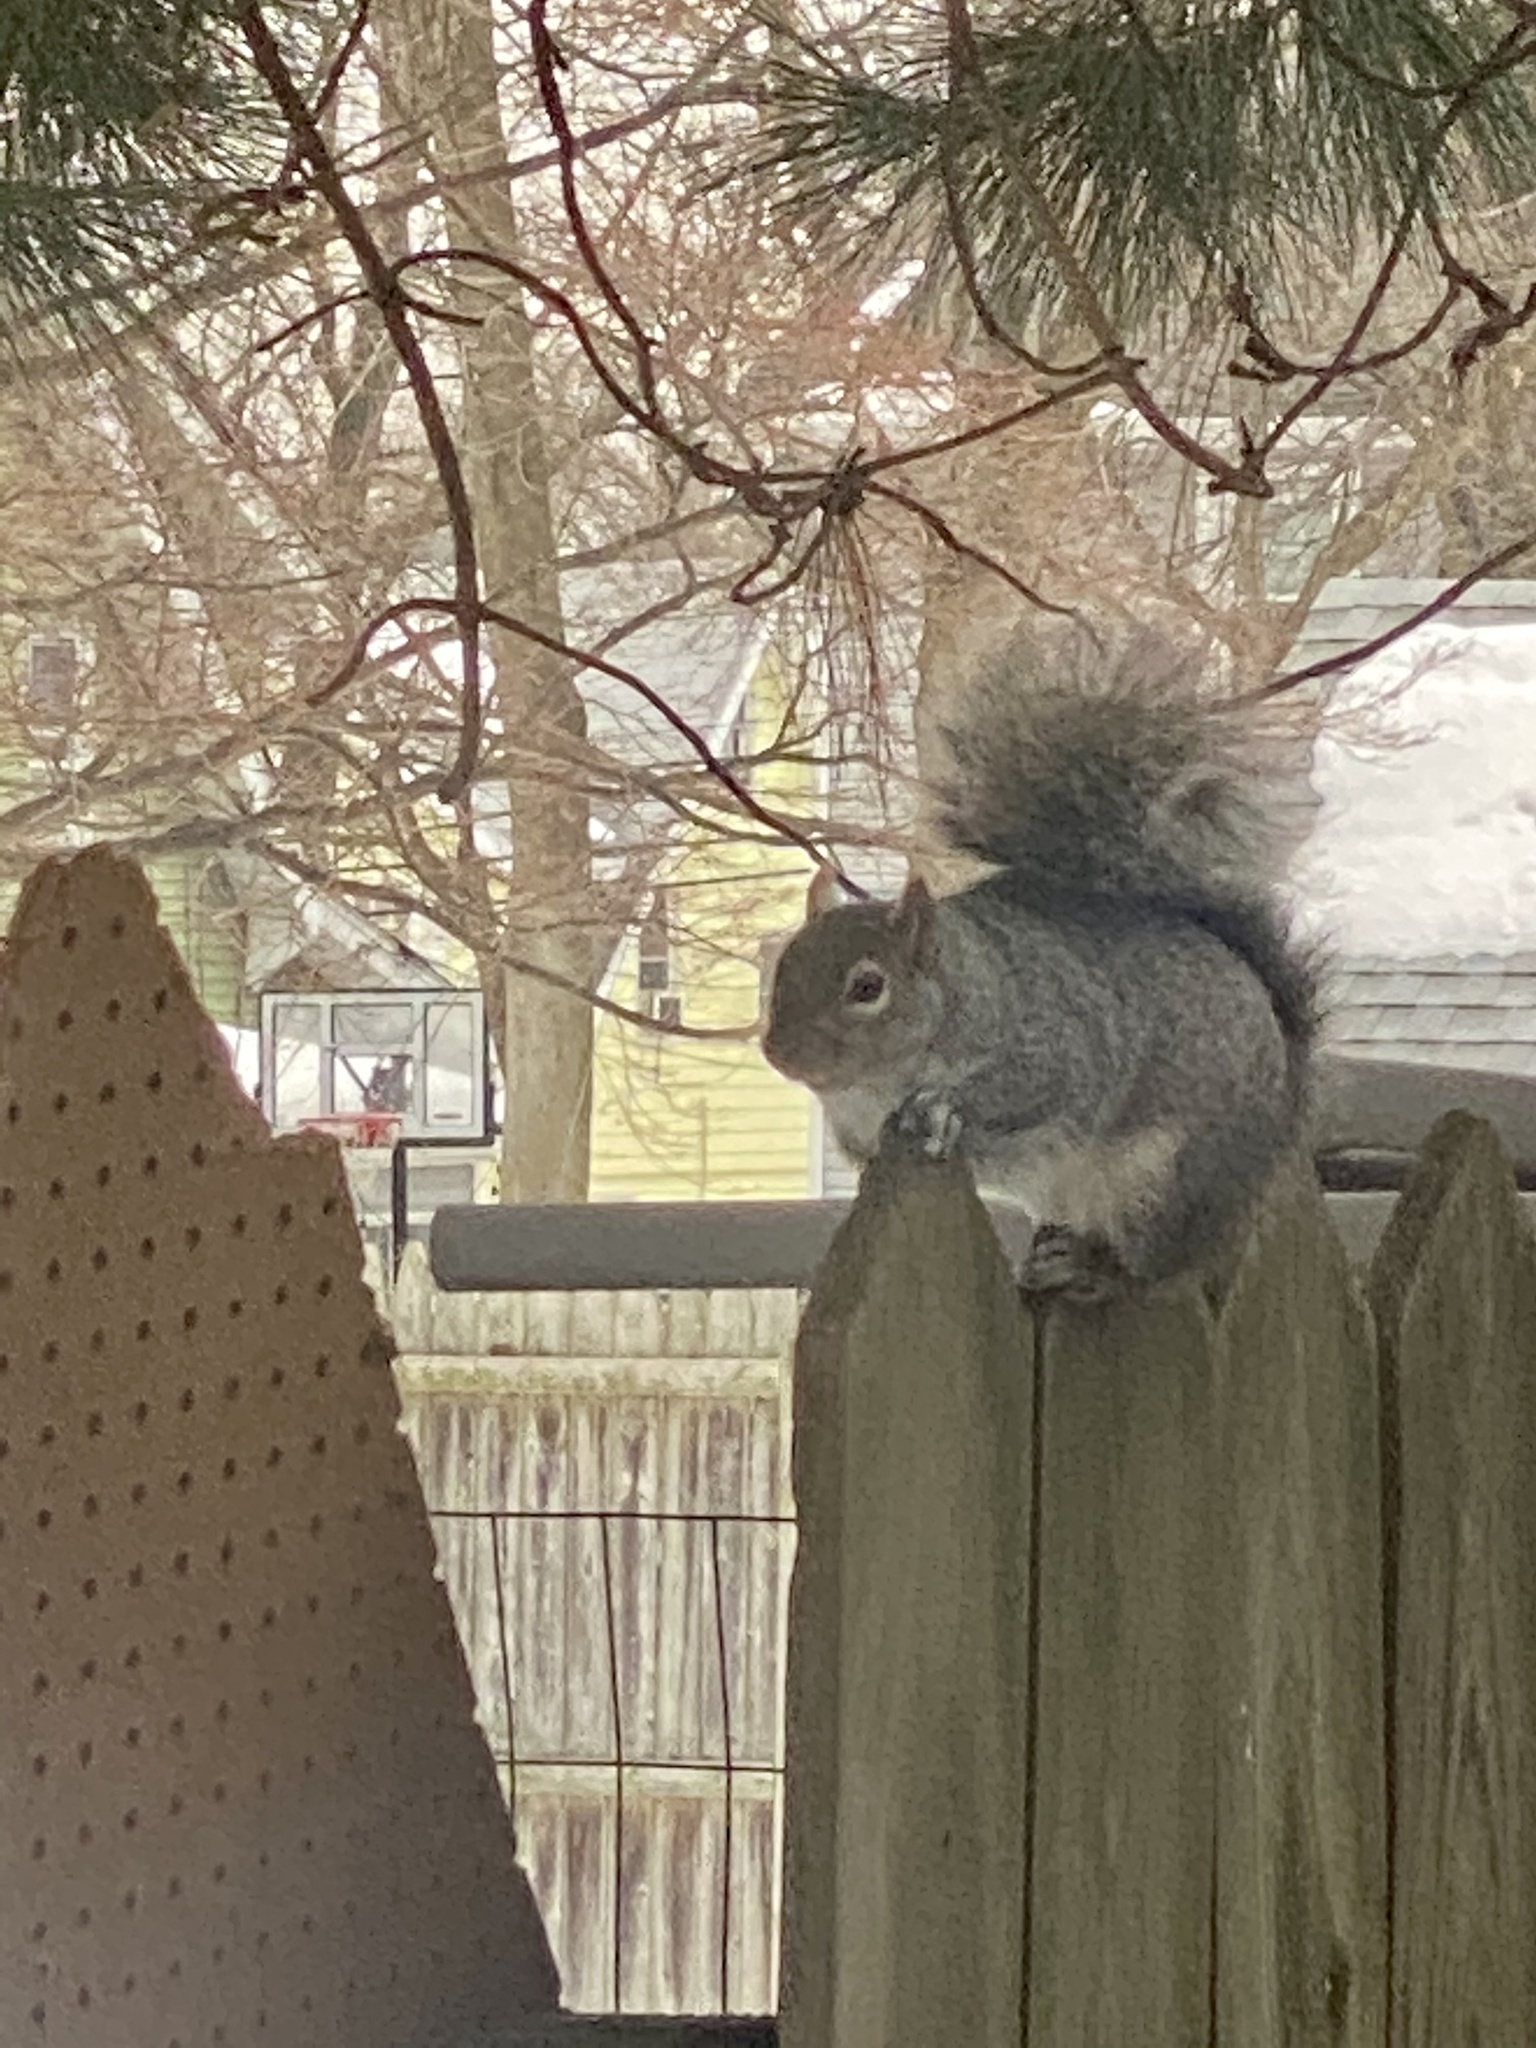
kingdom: Animalia
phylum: Chordata
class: Mammalia
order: Rodentia
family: Sciuridae
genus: Sciurus
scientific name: Sciurus carolinensis
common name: Eastern gray squirrel
